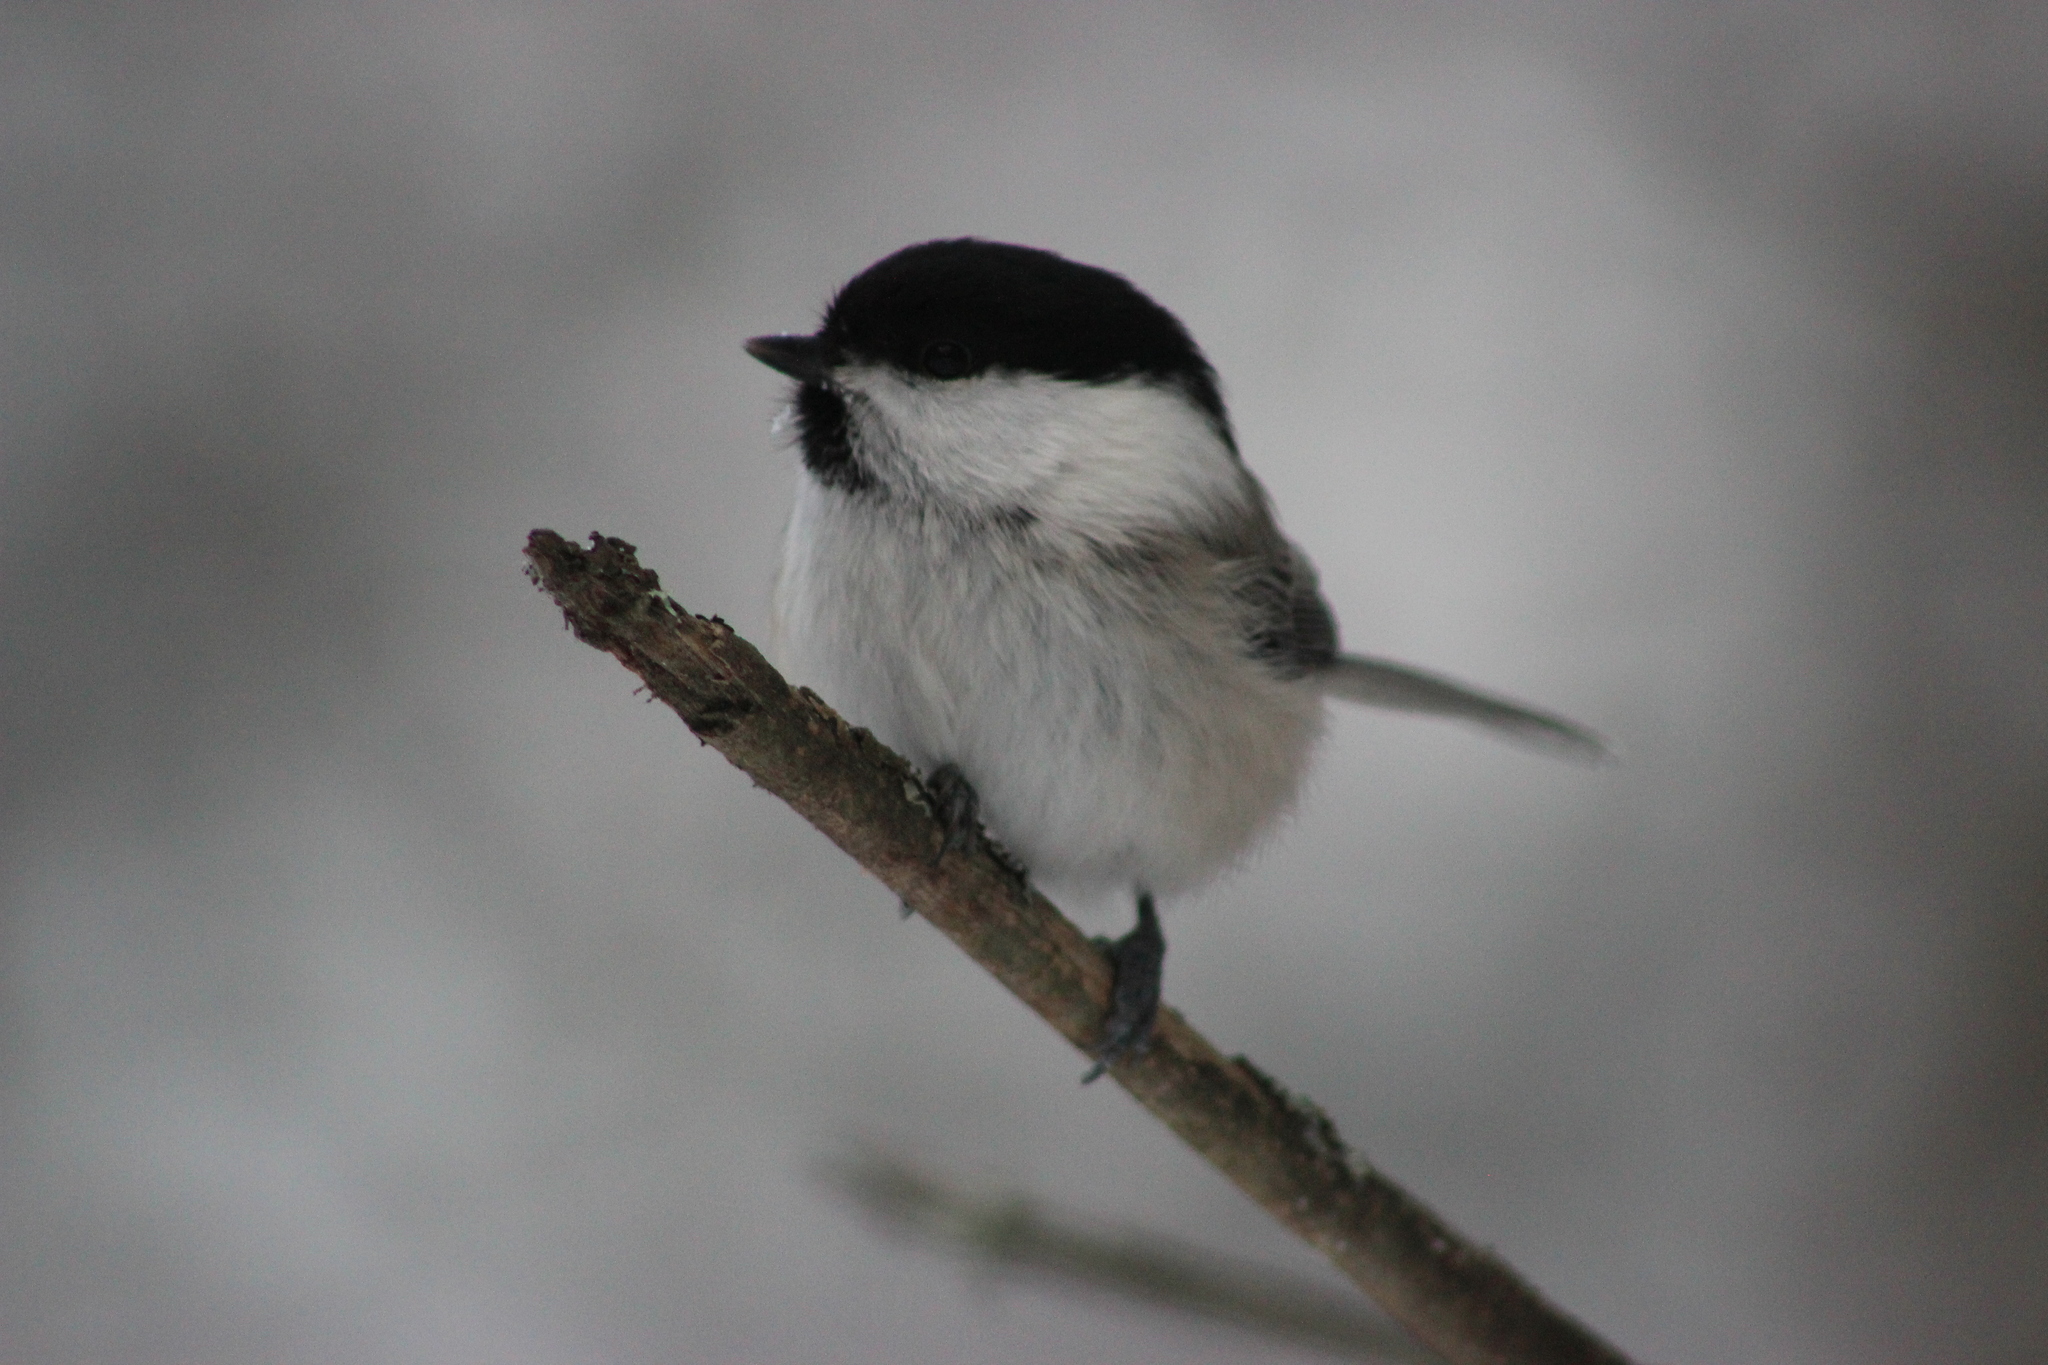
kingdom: Animalia
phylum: Chordata
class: Aves
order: Passeriformes
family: Paridae
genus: Poecile
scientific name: Poecile montanus
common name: Willow tit
